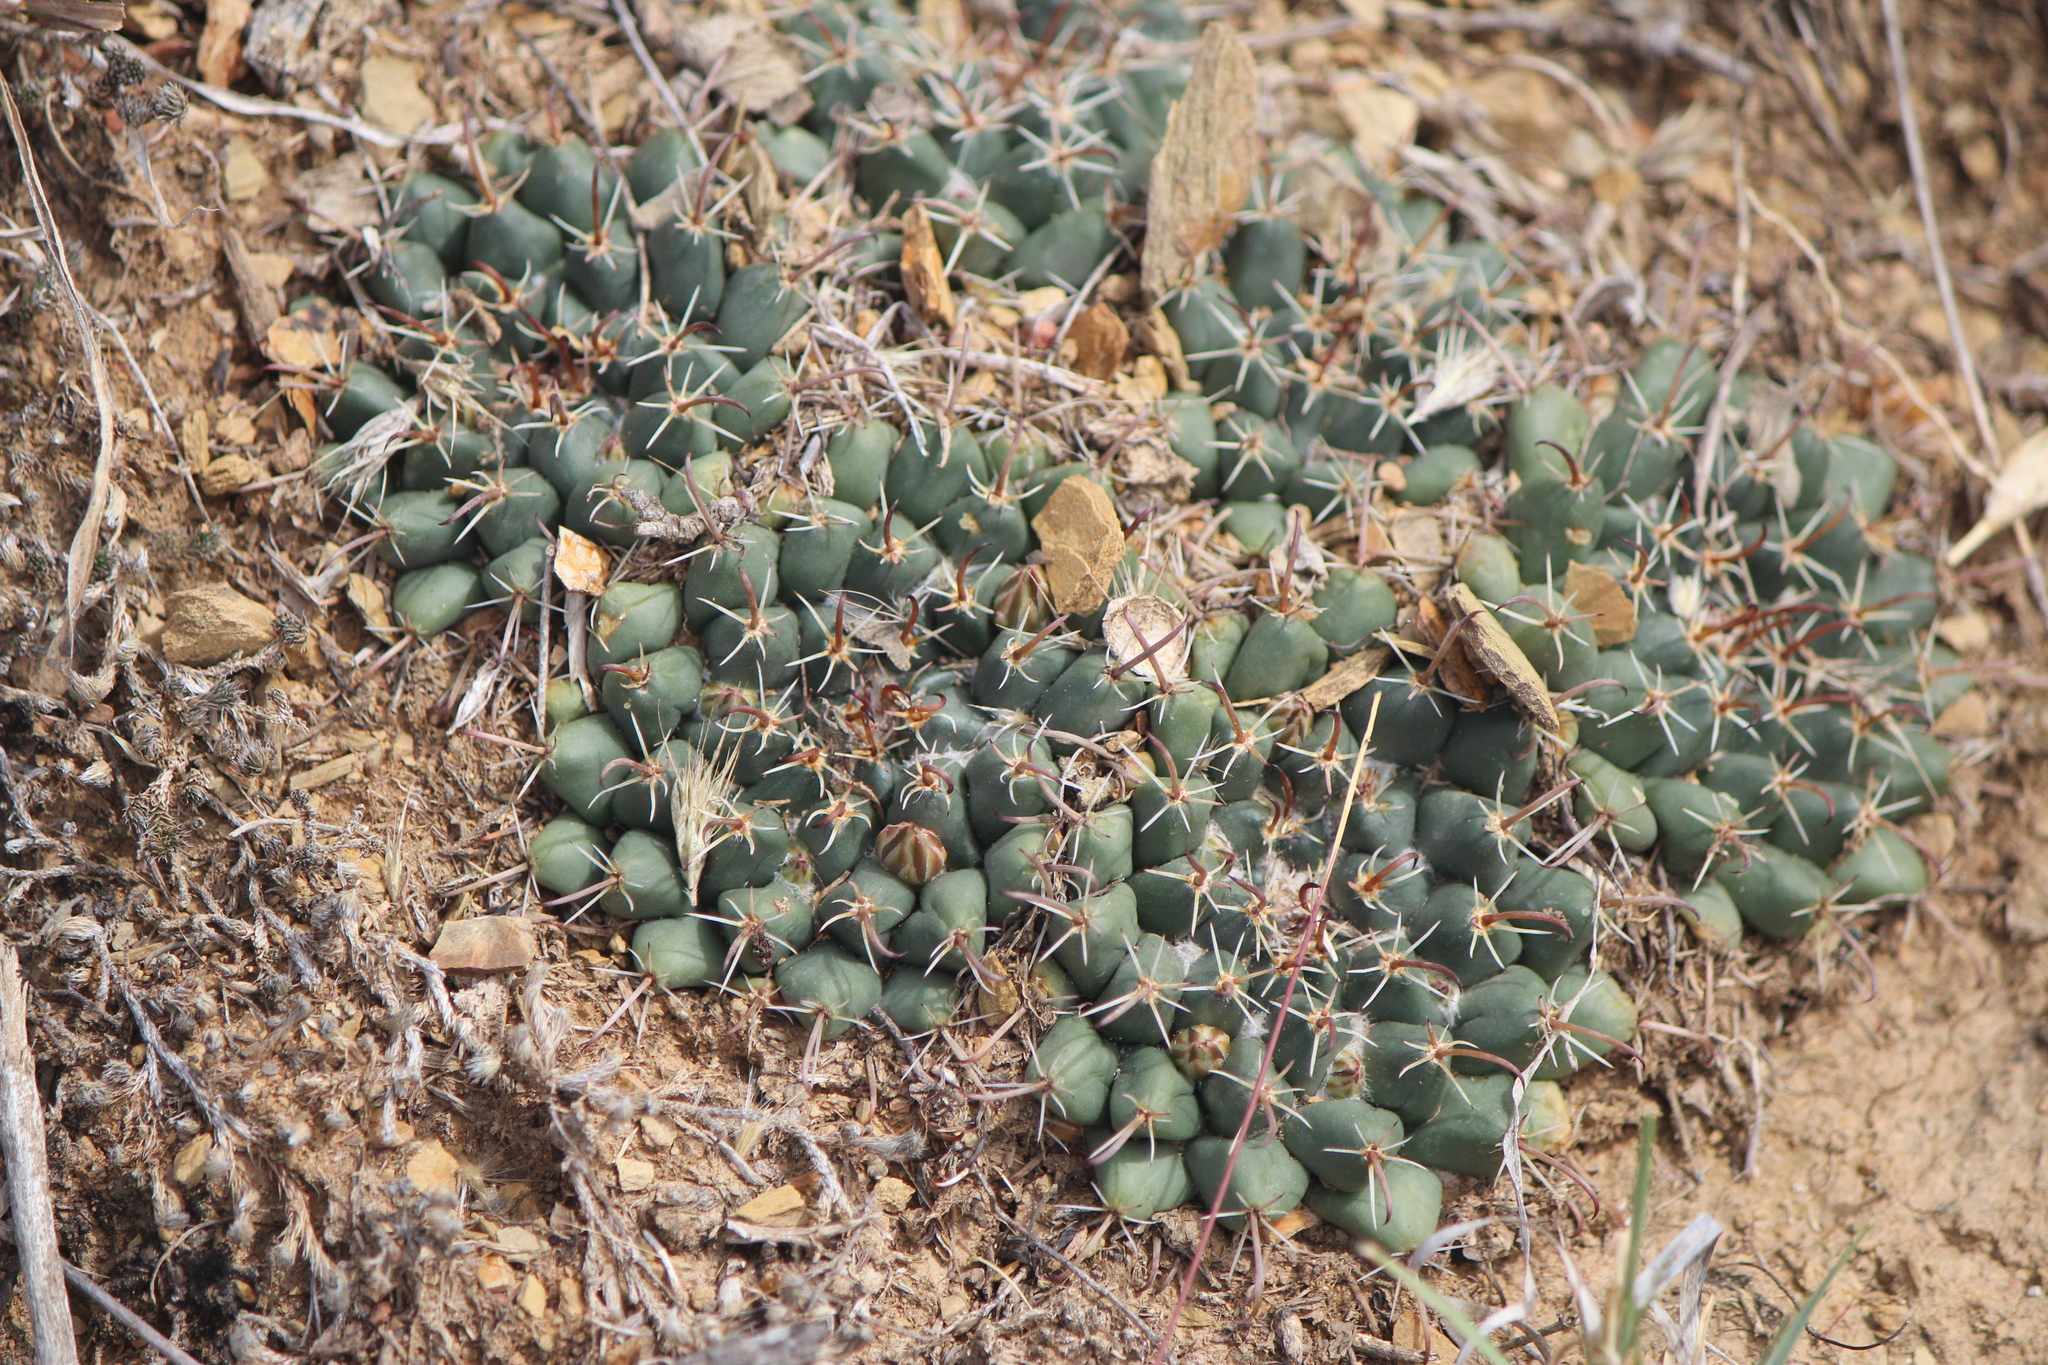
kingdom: Plantae
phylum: Tracheophyta
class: Magnoliopsida
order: Caryophyllales
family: Cactaceae
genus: Mammillaria
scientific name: Mammillaria uncinata
